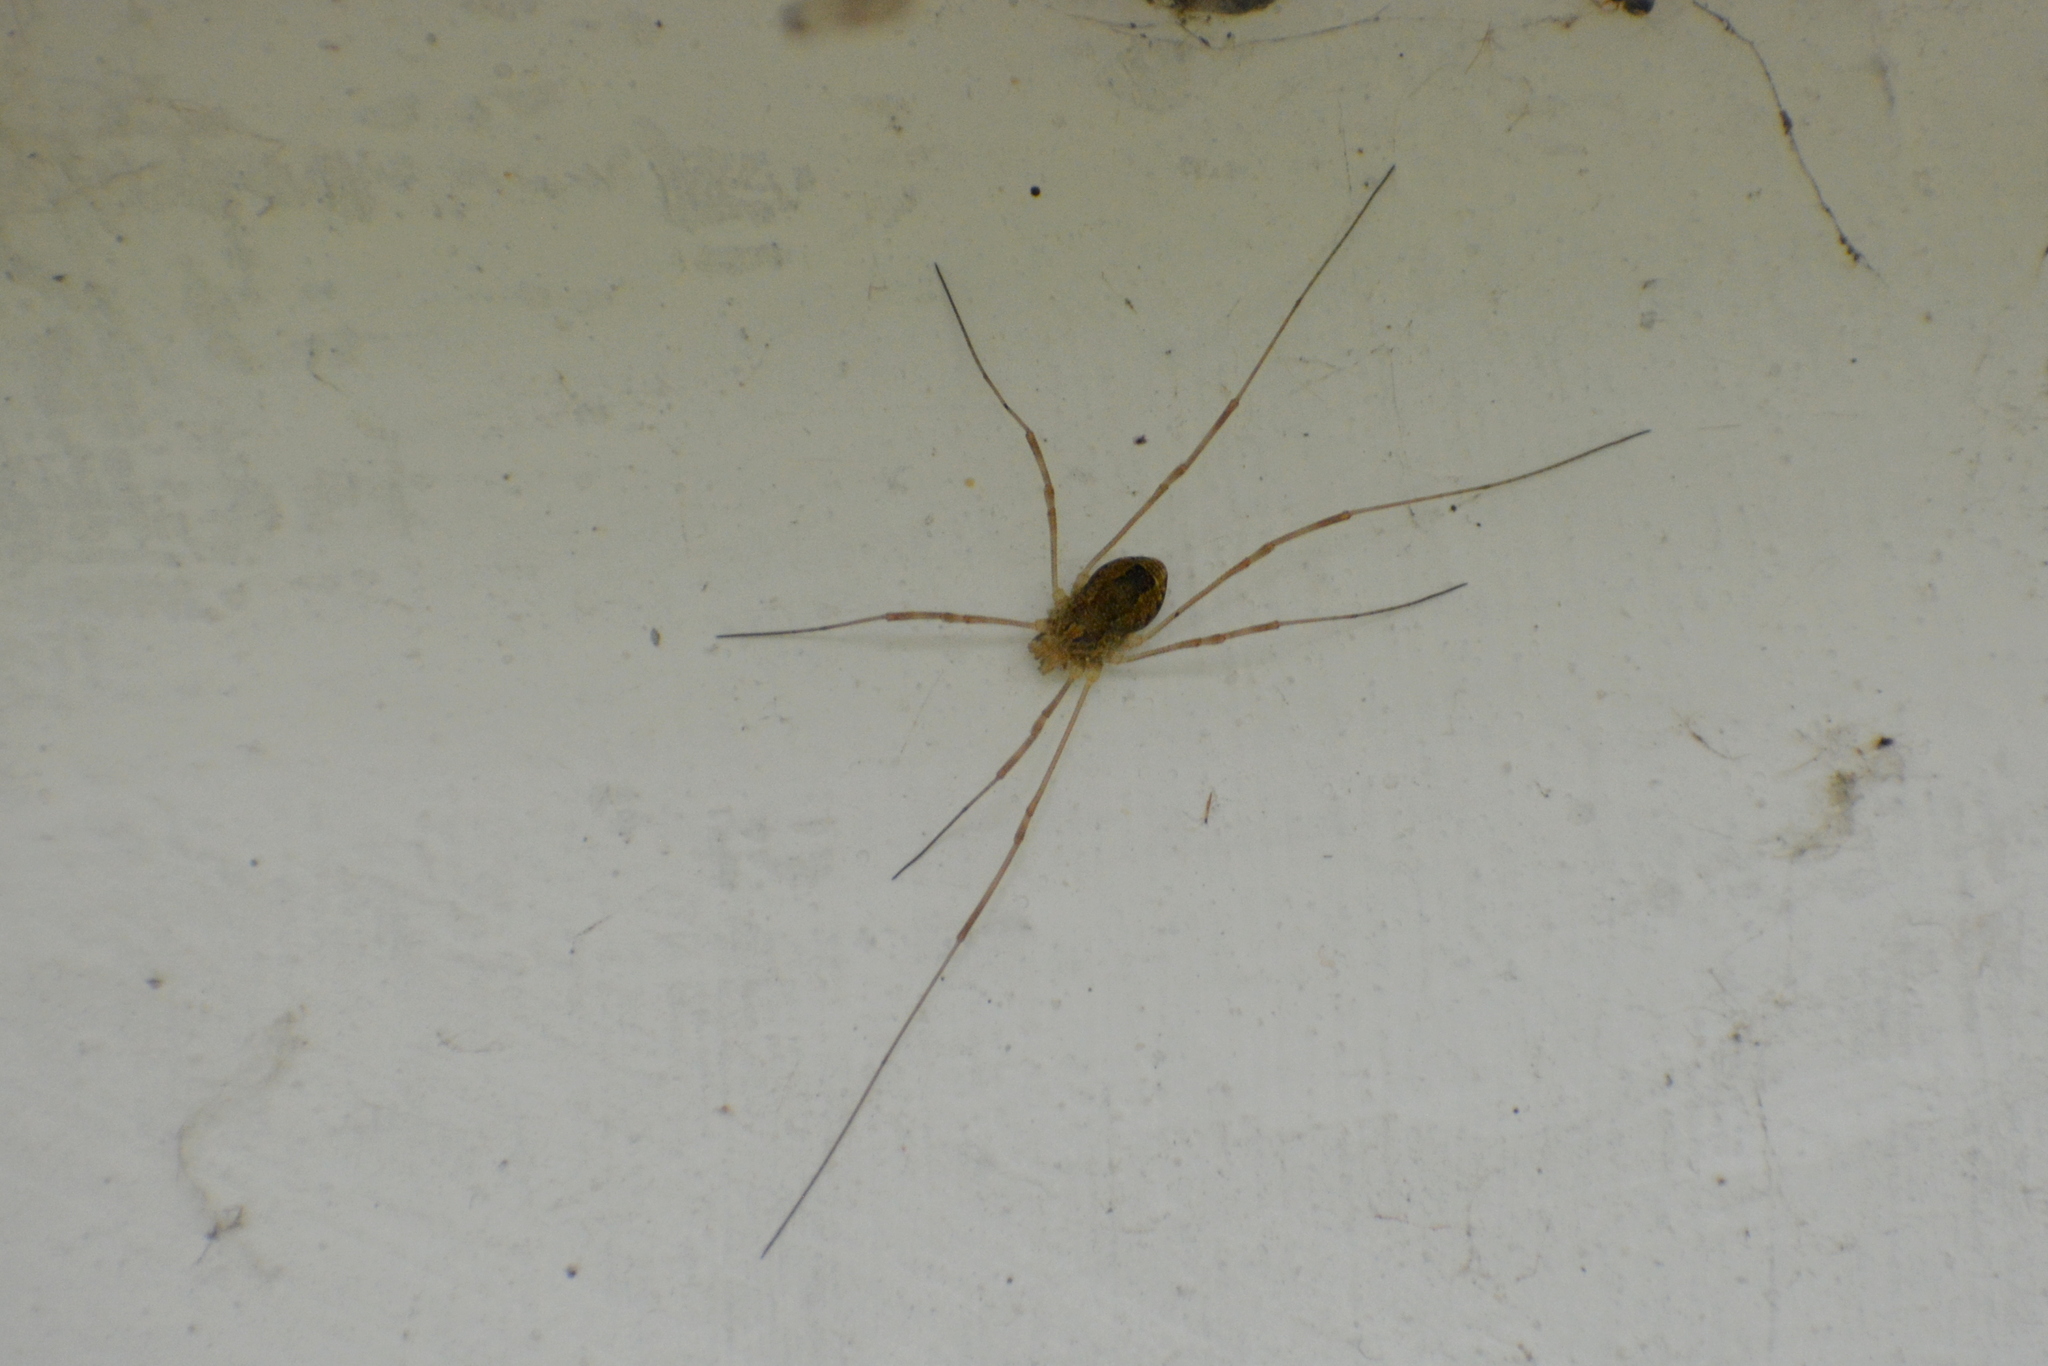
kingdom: Animalia
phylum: Arthropoda
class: Arachnida
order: Opiliones
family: Phalangiidae
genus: Rilaena
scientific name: Rilaena triangularis
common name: Spring harvestman
